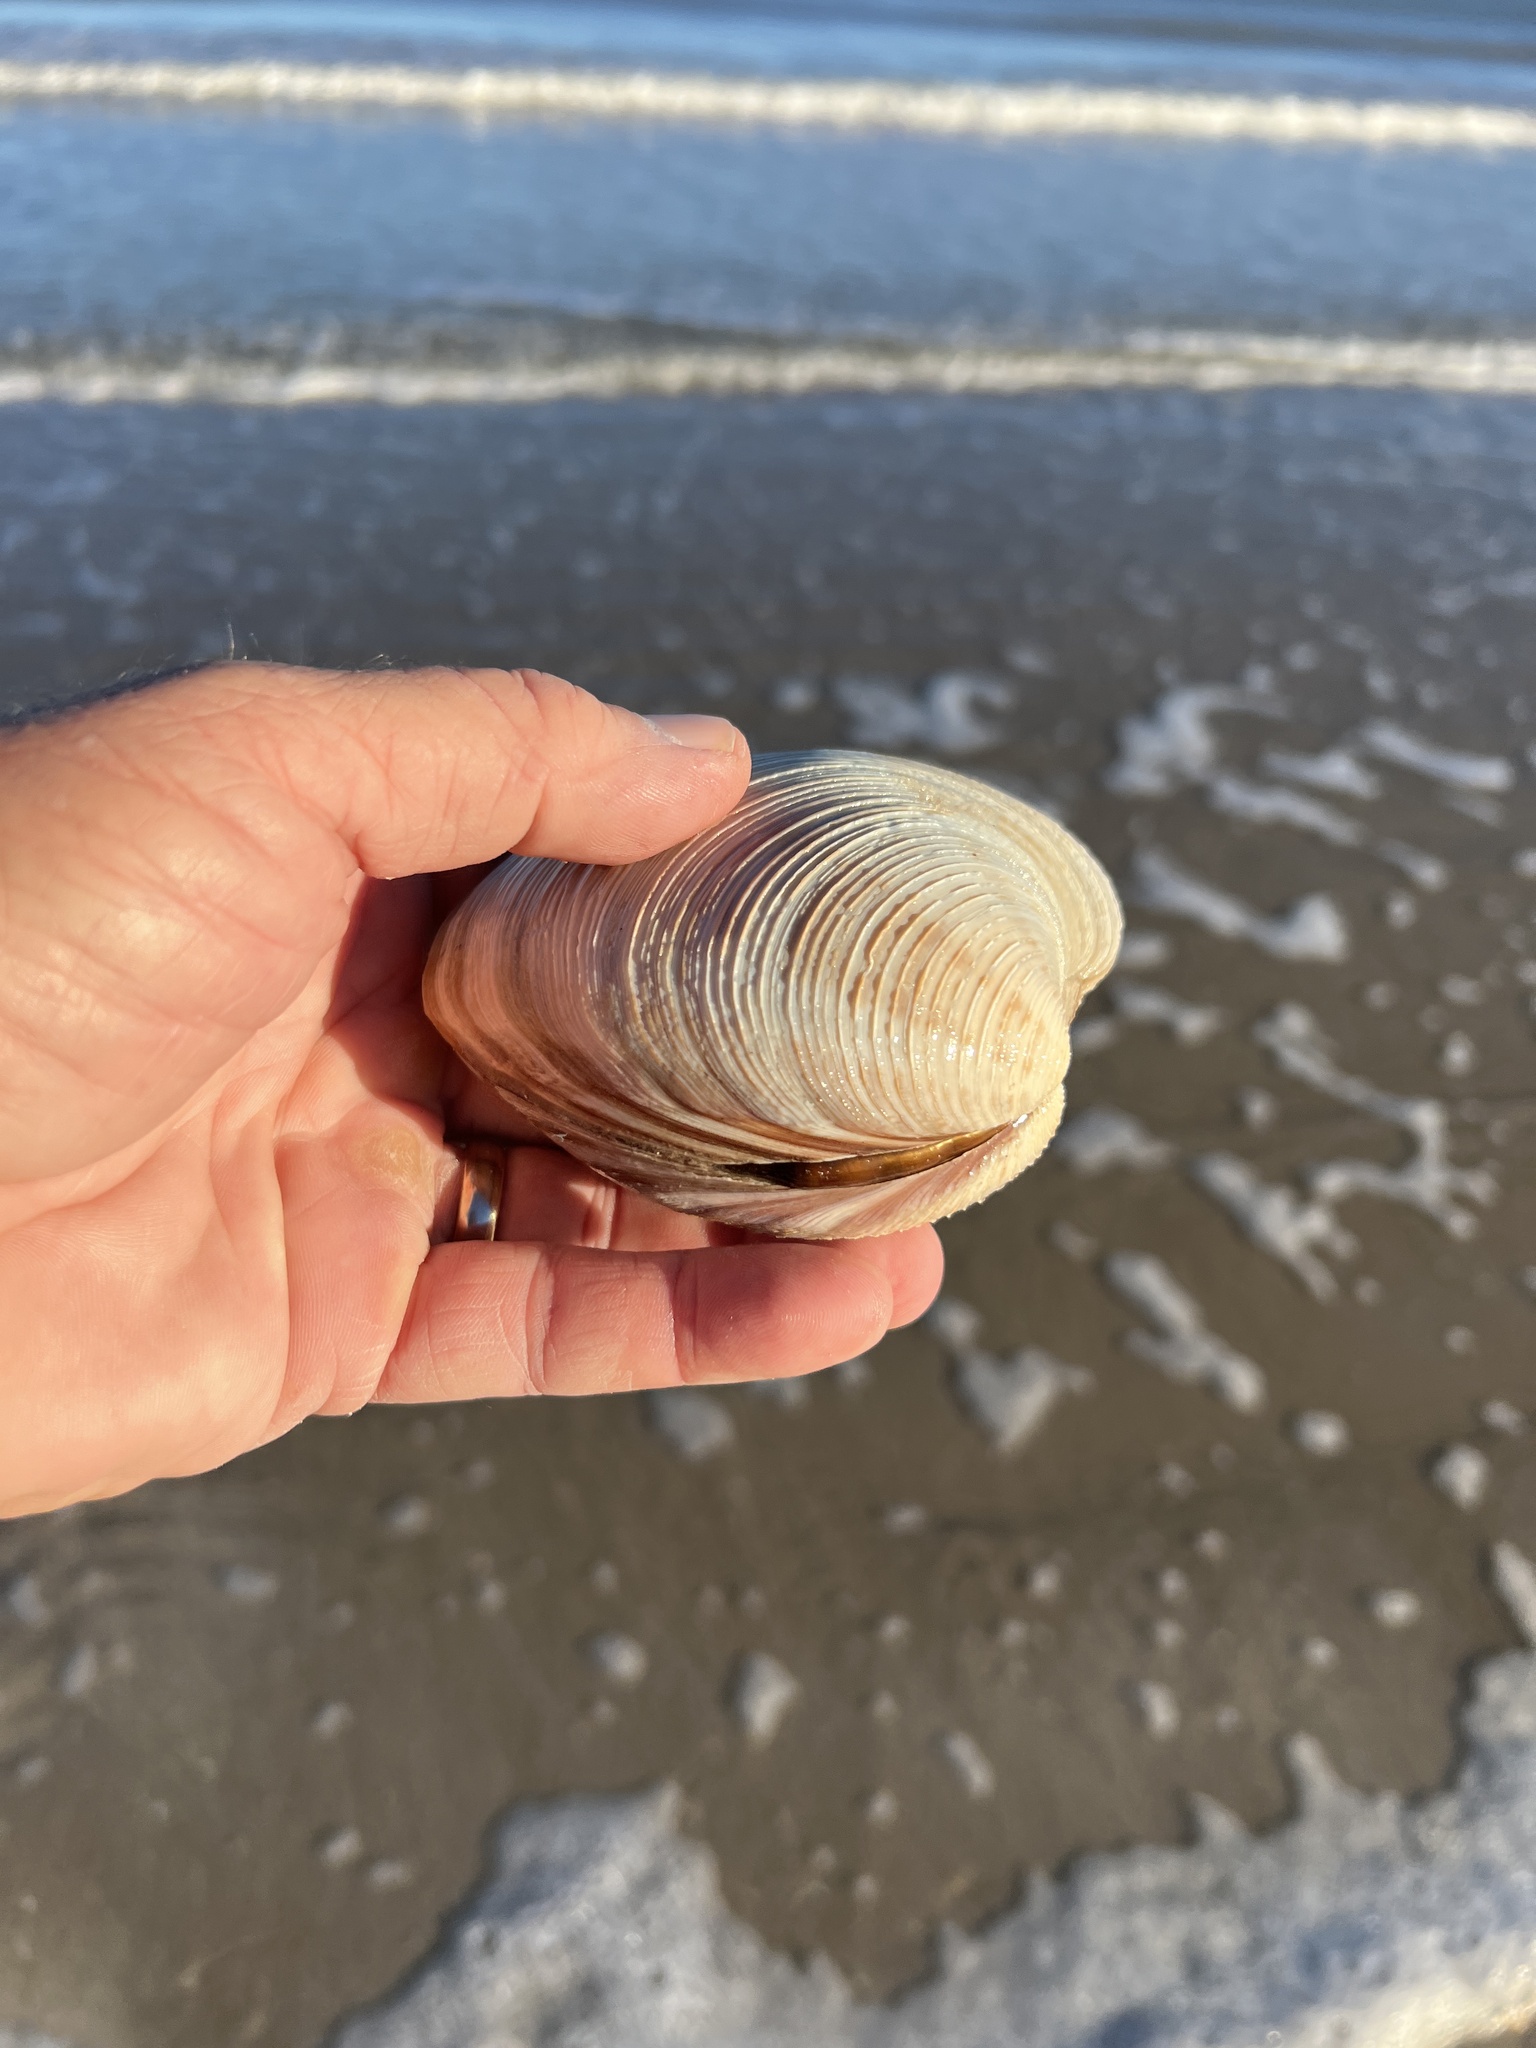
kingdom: Animalia
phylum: Mollusca
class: Bivalvia
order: Venerida
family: Veneridae
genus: Mercenaria
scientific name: Mercenaria campechiensis
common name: Südliche quahog-muschel
